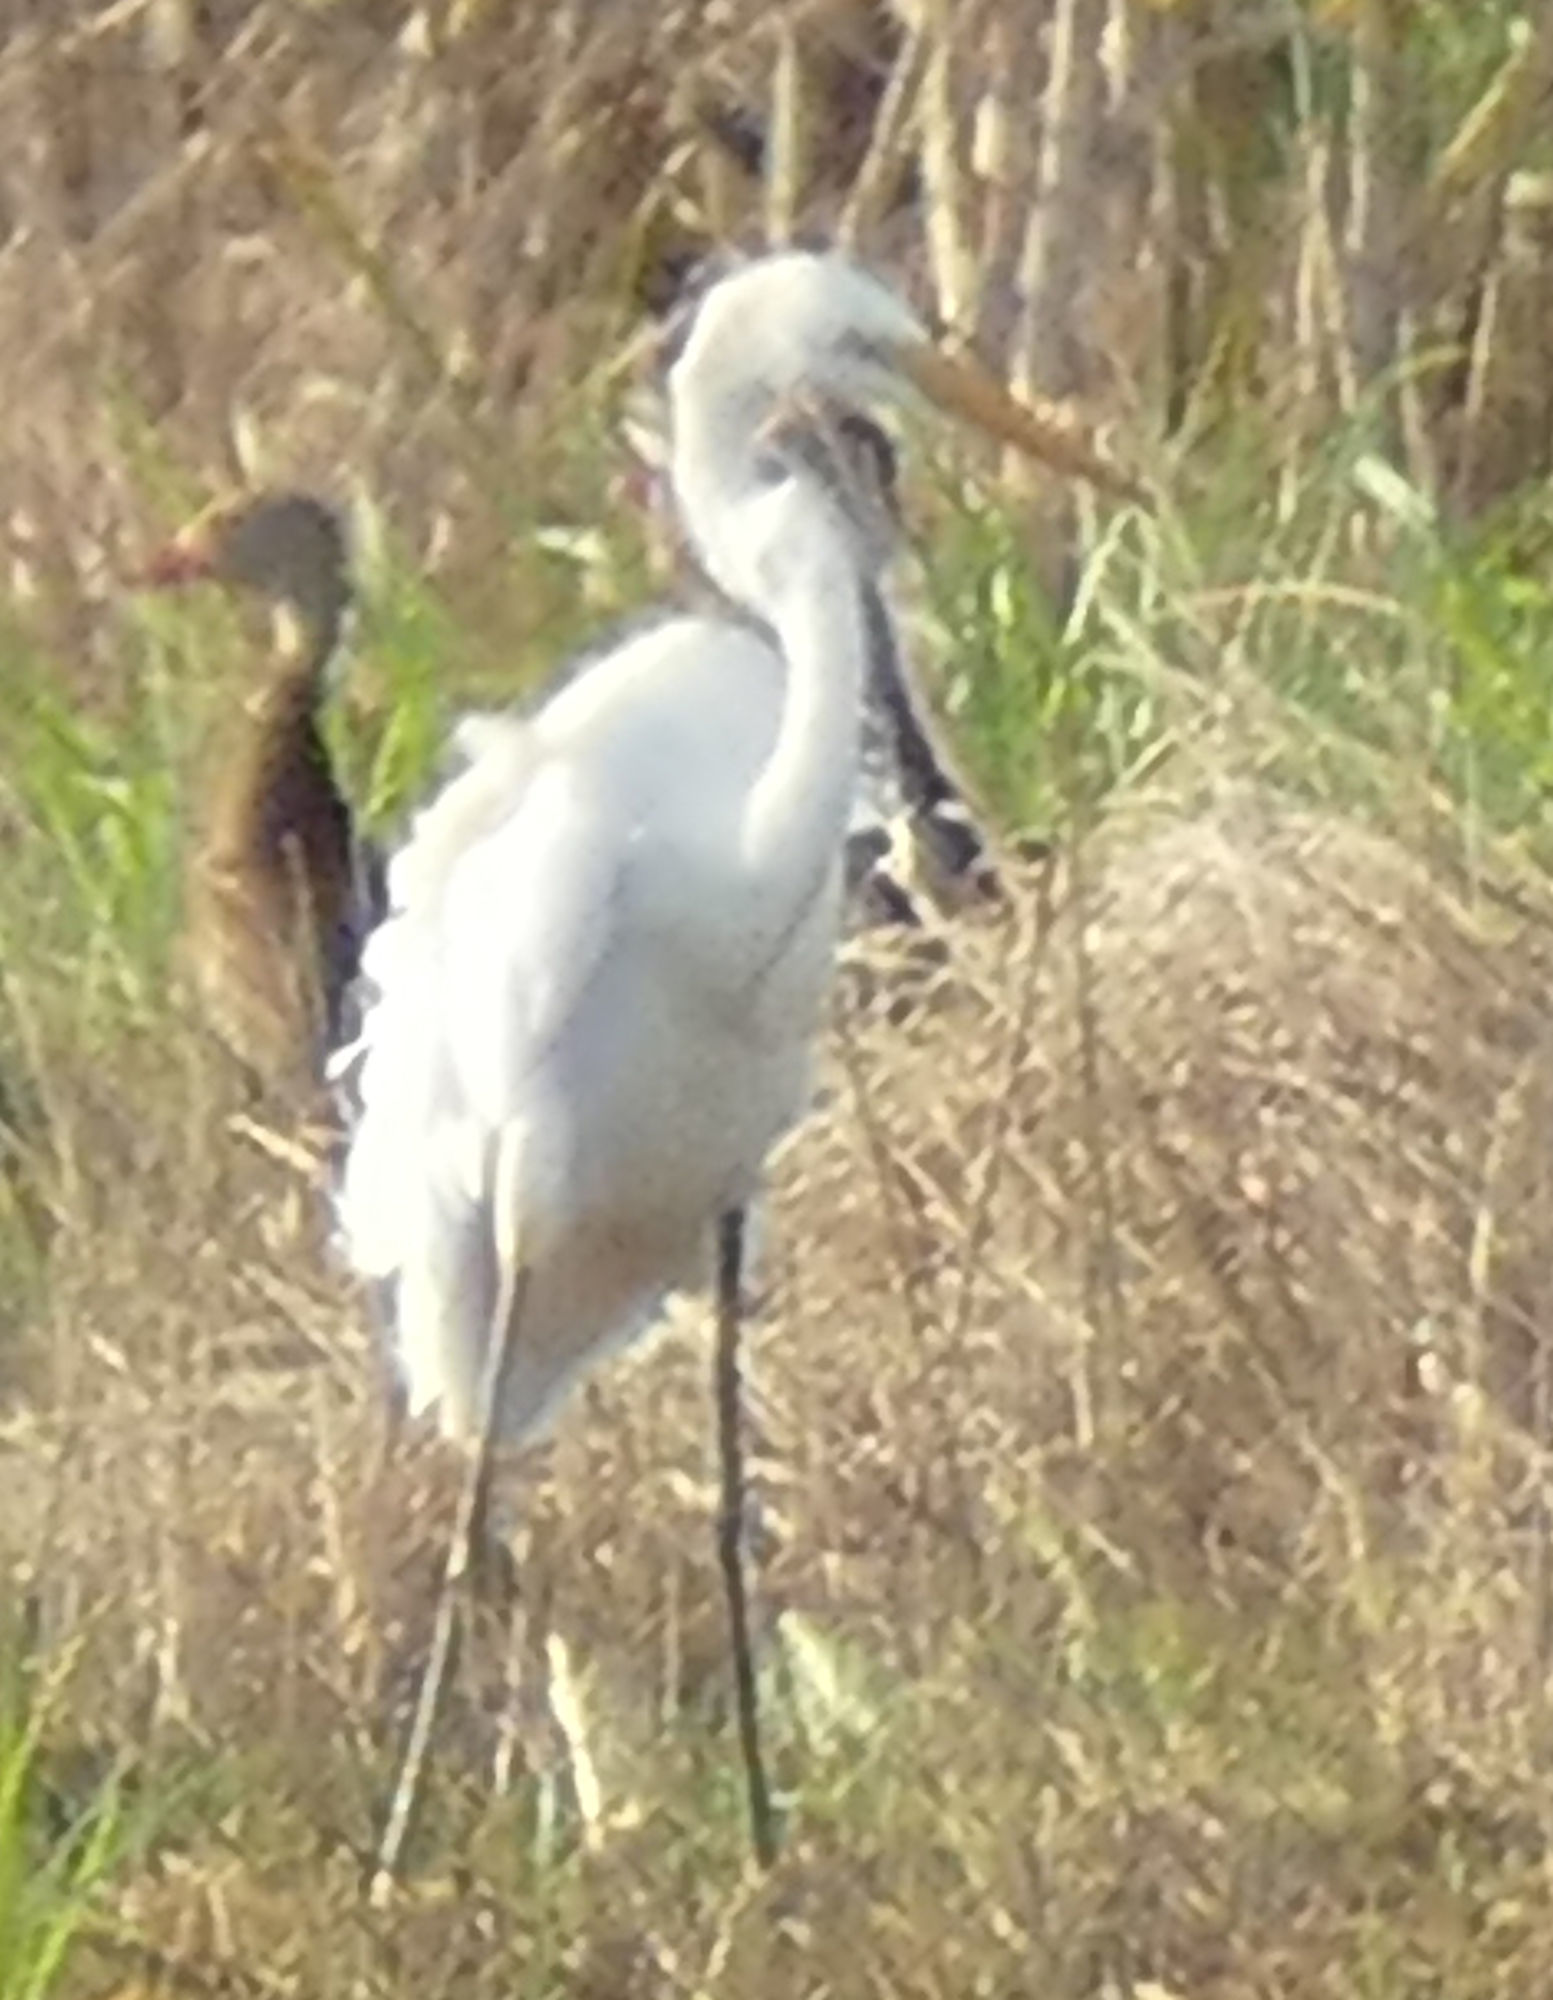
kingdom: Animalia
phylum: Chordata
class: Aves
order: Pelecaniformes
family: Ardeidae
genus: Ardea
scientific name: Ardea alba
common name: Great egret
